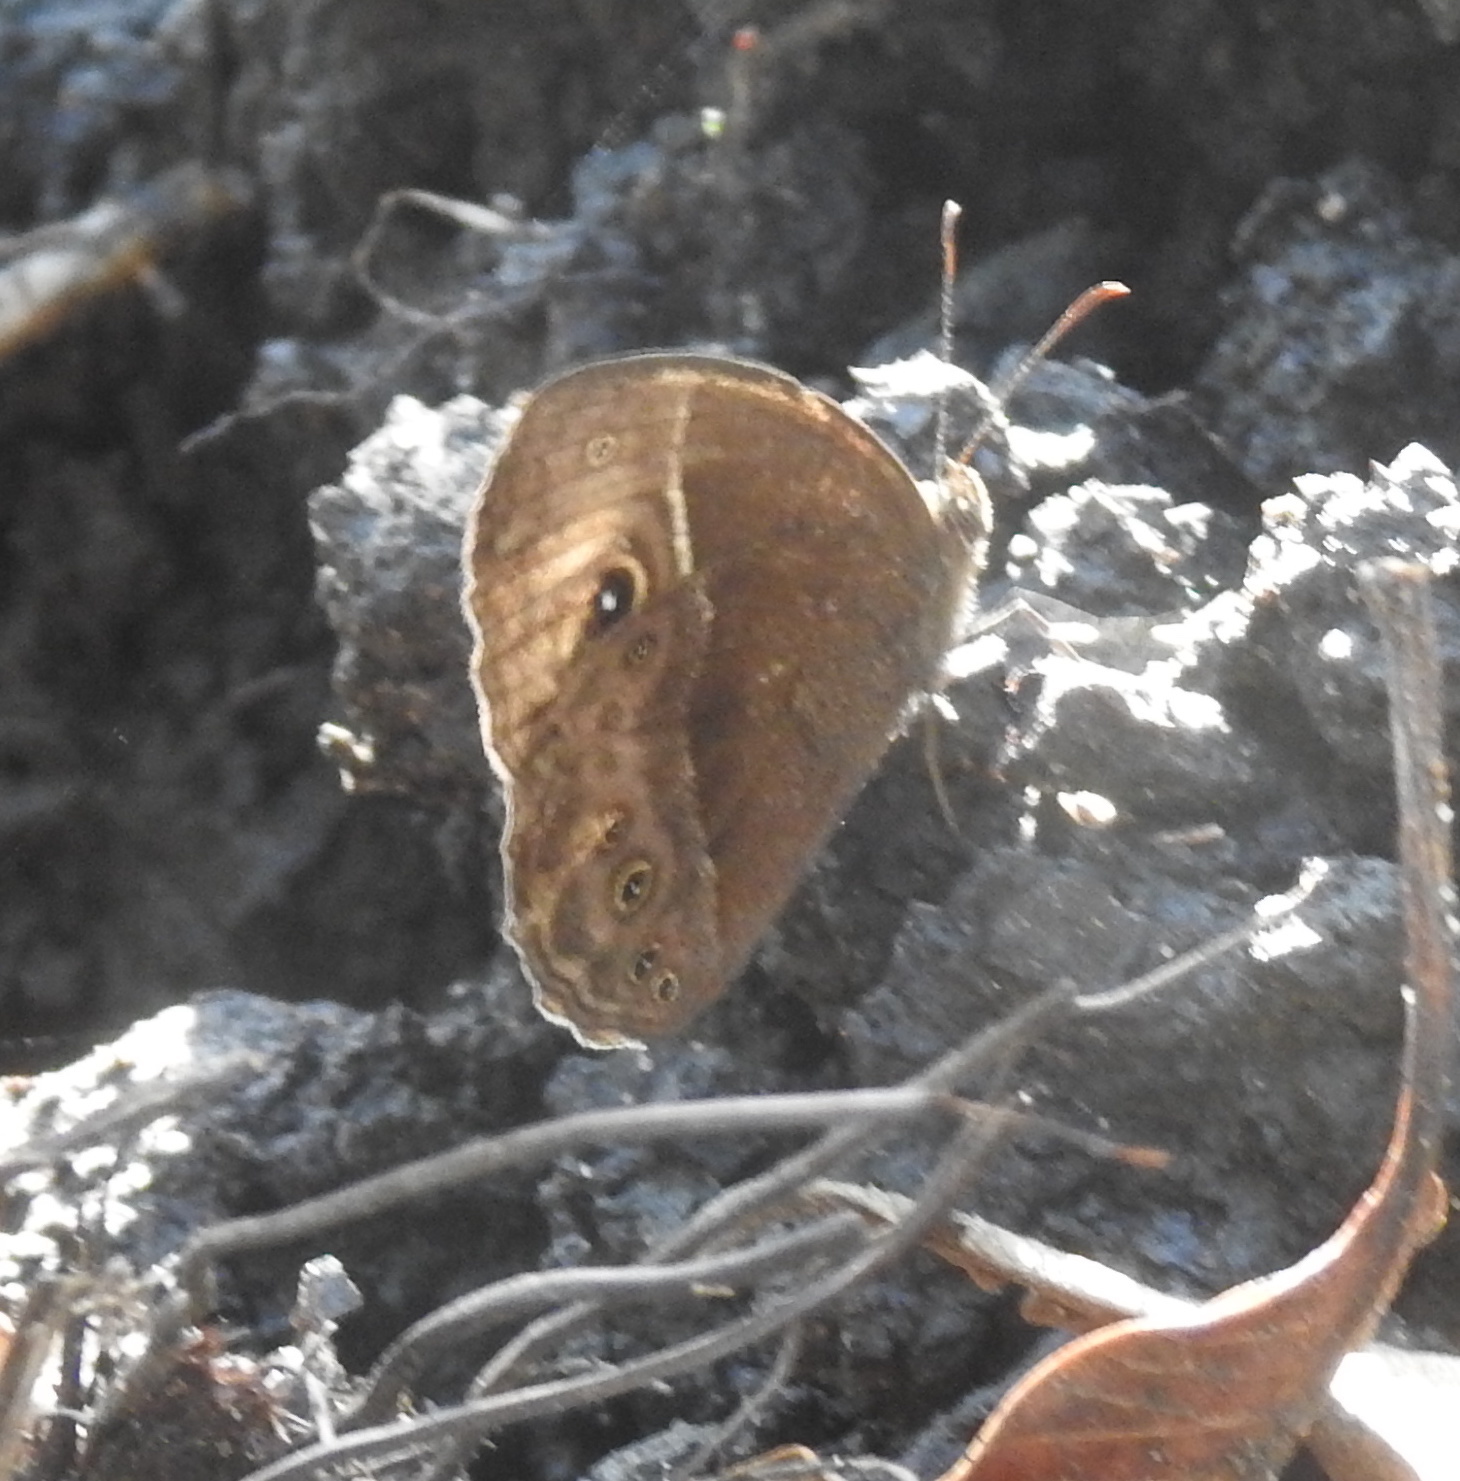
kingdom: Animalia
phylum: Arthropoda
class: Insecta
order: Lepidoptera
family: Nymphalidae
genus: Mycalesis
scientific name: Mycalesis rhacotis
